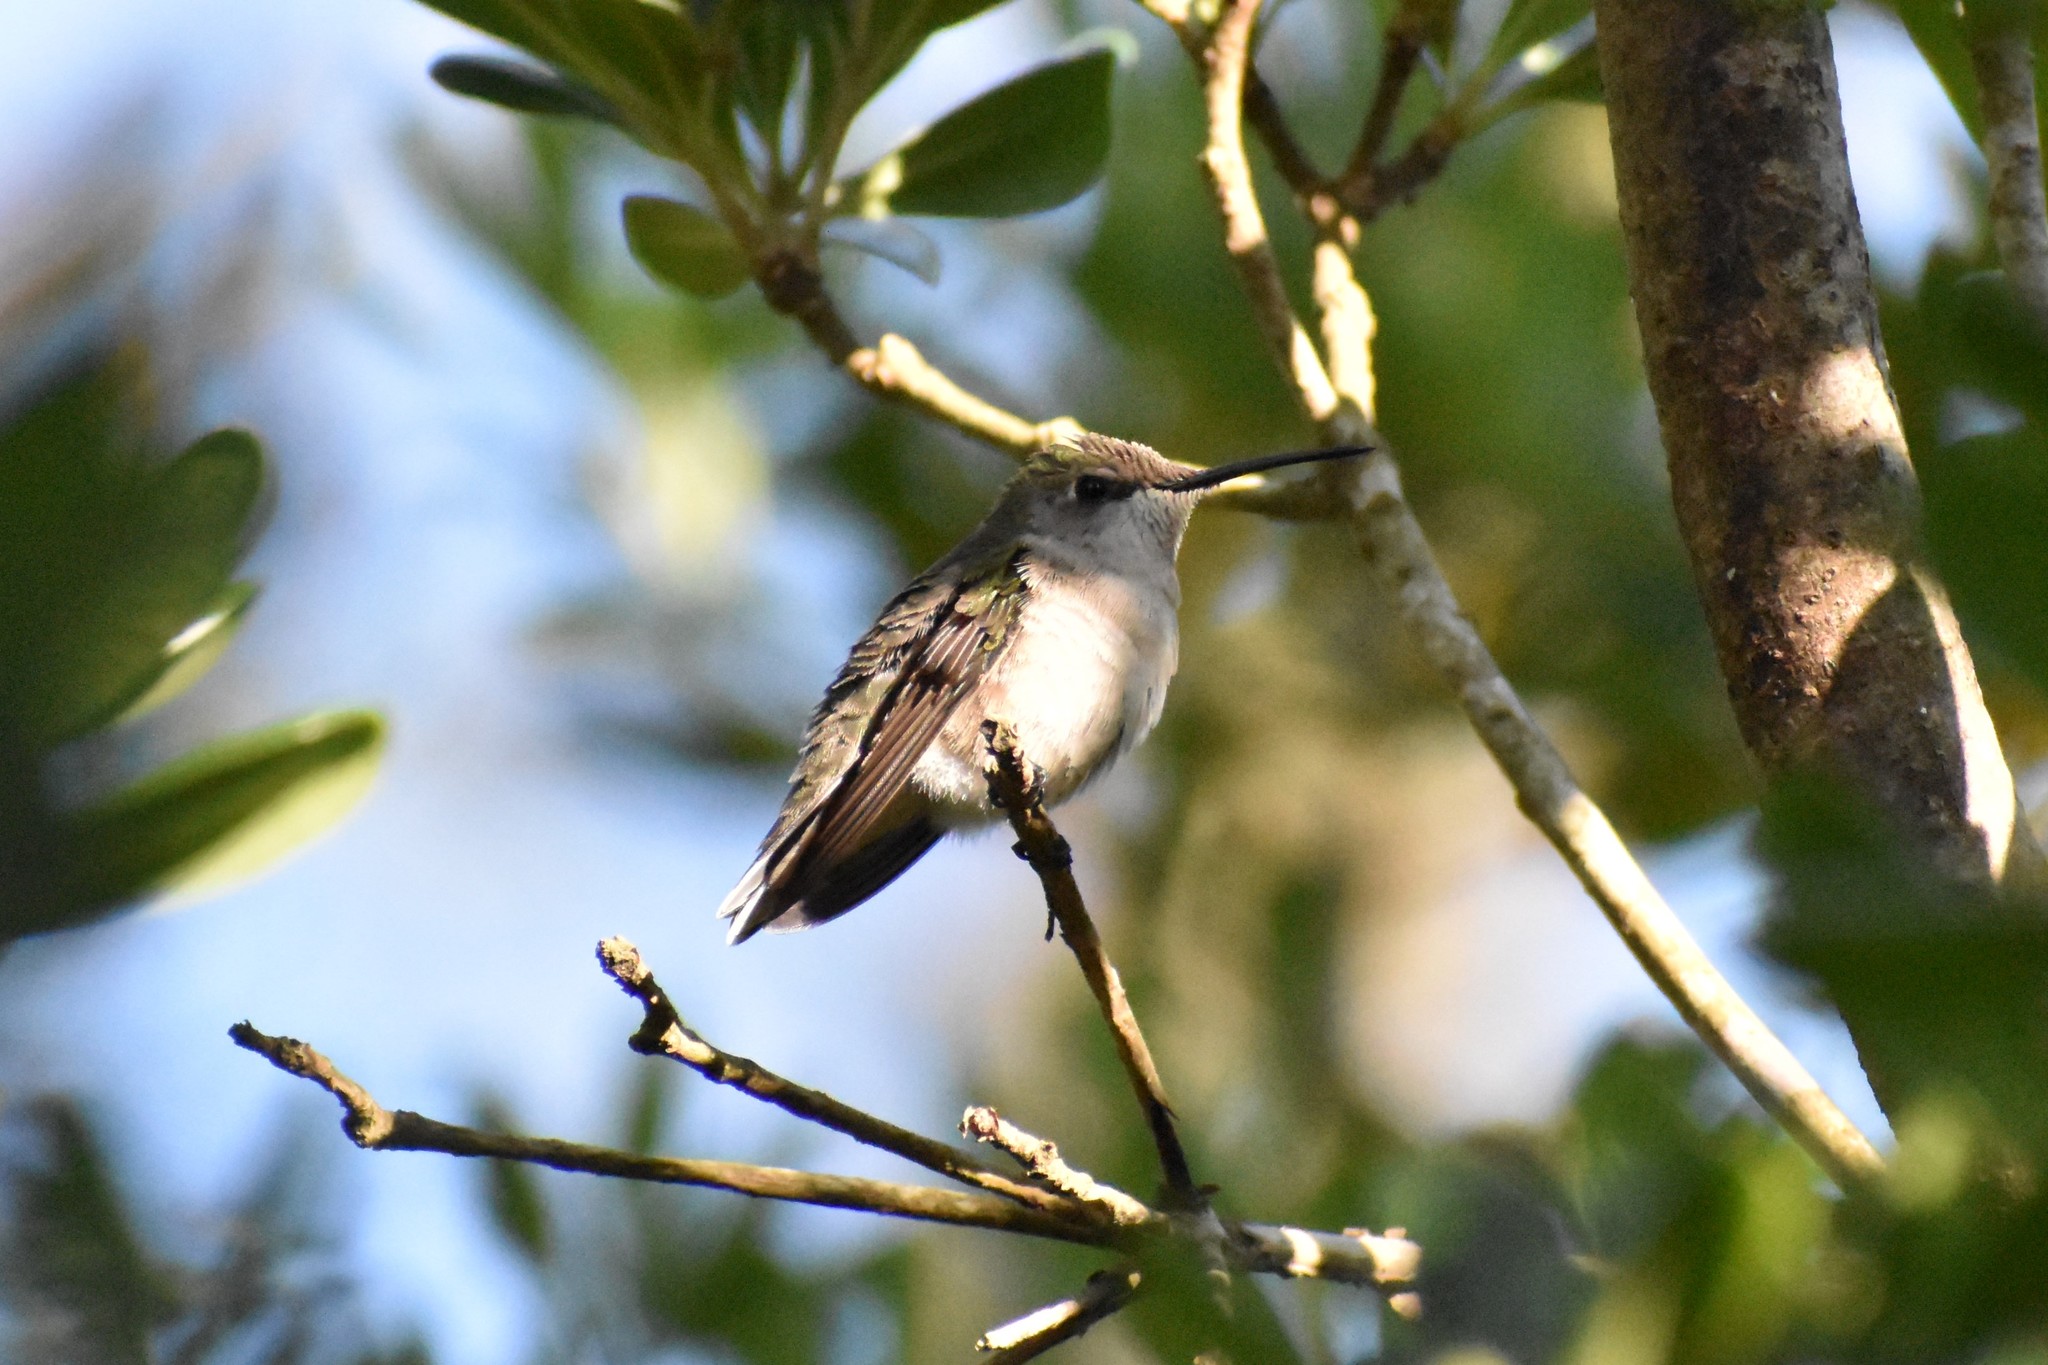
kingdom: Animalia
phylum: Chordata
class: Aves
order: Apodiformes
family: Trochilidae
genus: Archilochus
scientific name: Archilochus colubris
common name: Ruby-throated hummingbird
